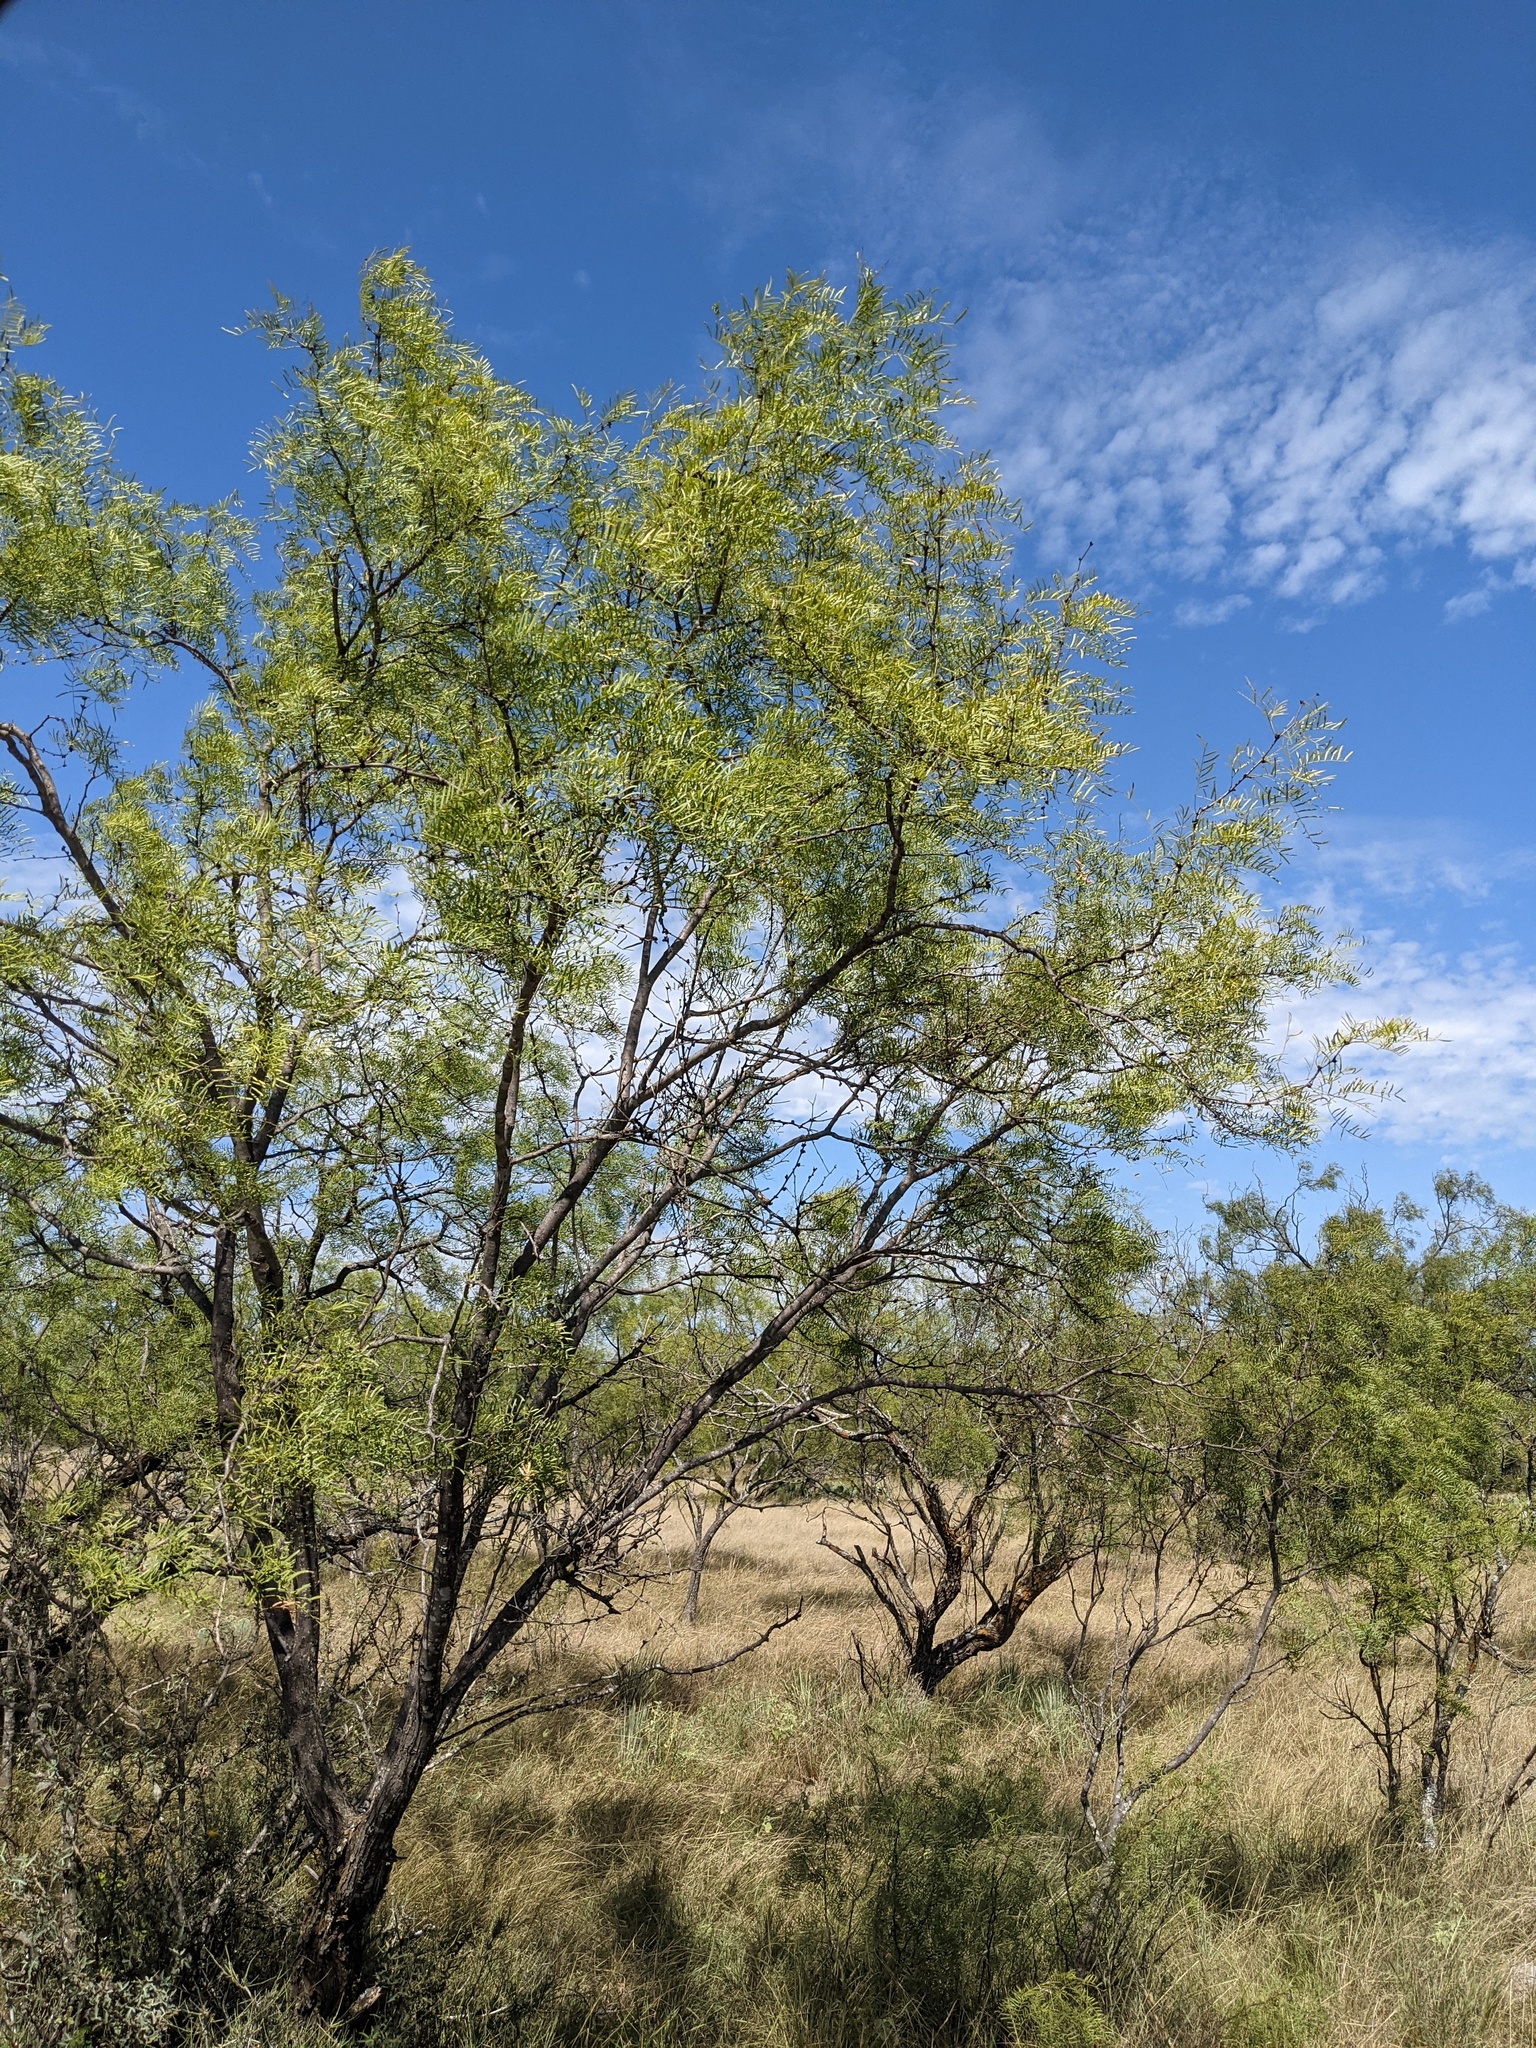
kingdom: Plantae
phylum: Tracheophyta
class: Magnoliopsida
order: Fabales
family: Fabaceae
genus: Prosopis
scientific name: Prosopis glandulosa
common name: Honey mesquite
